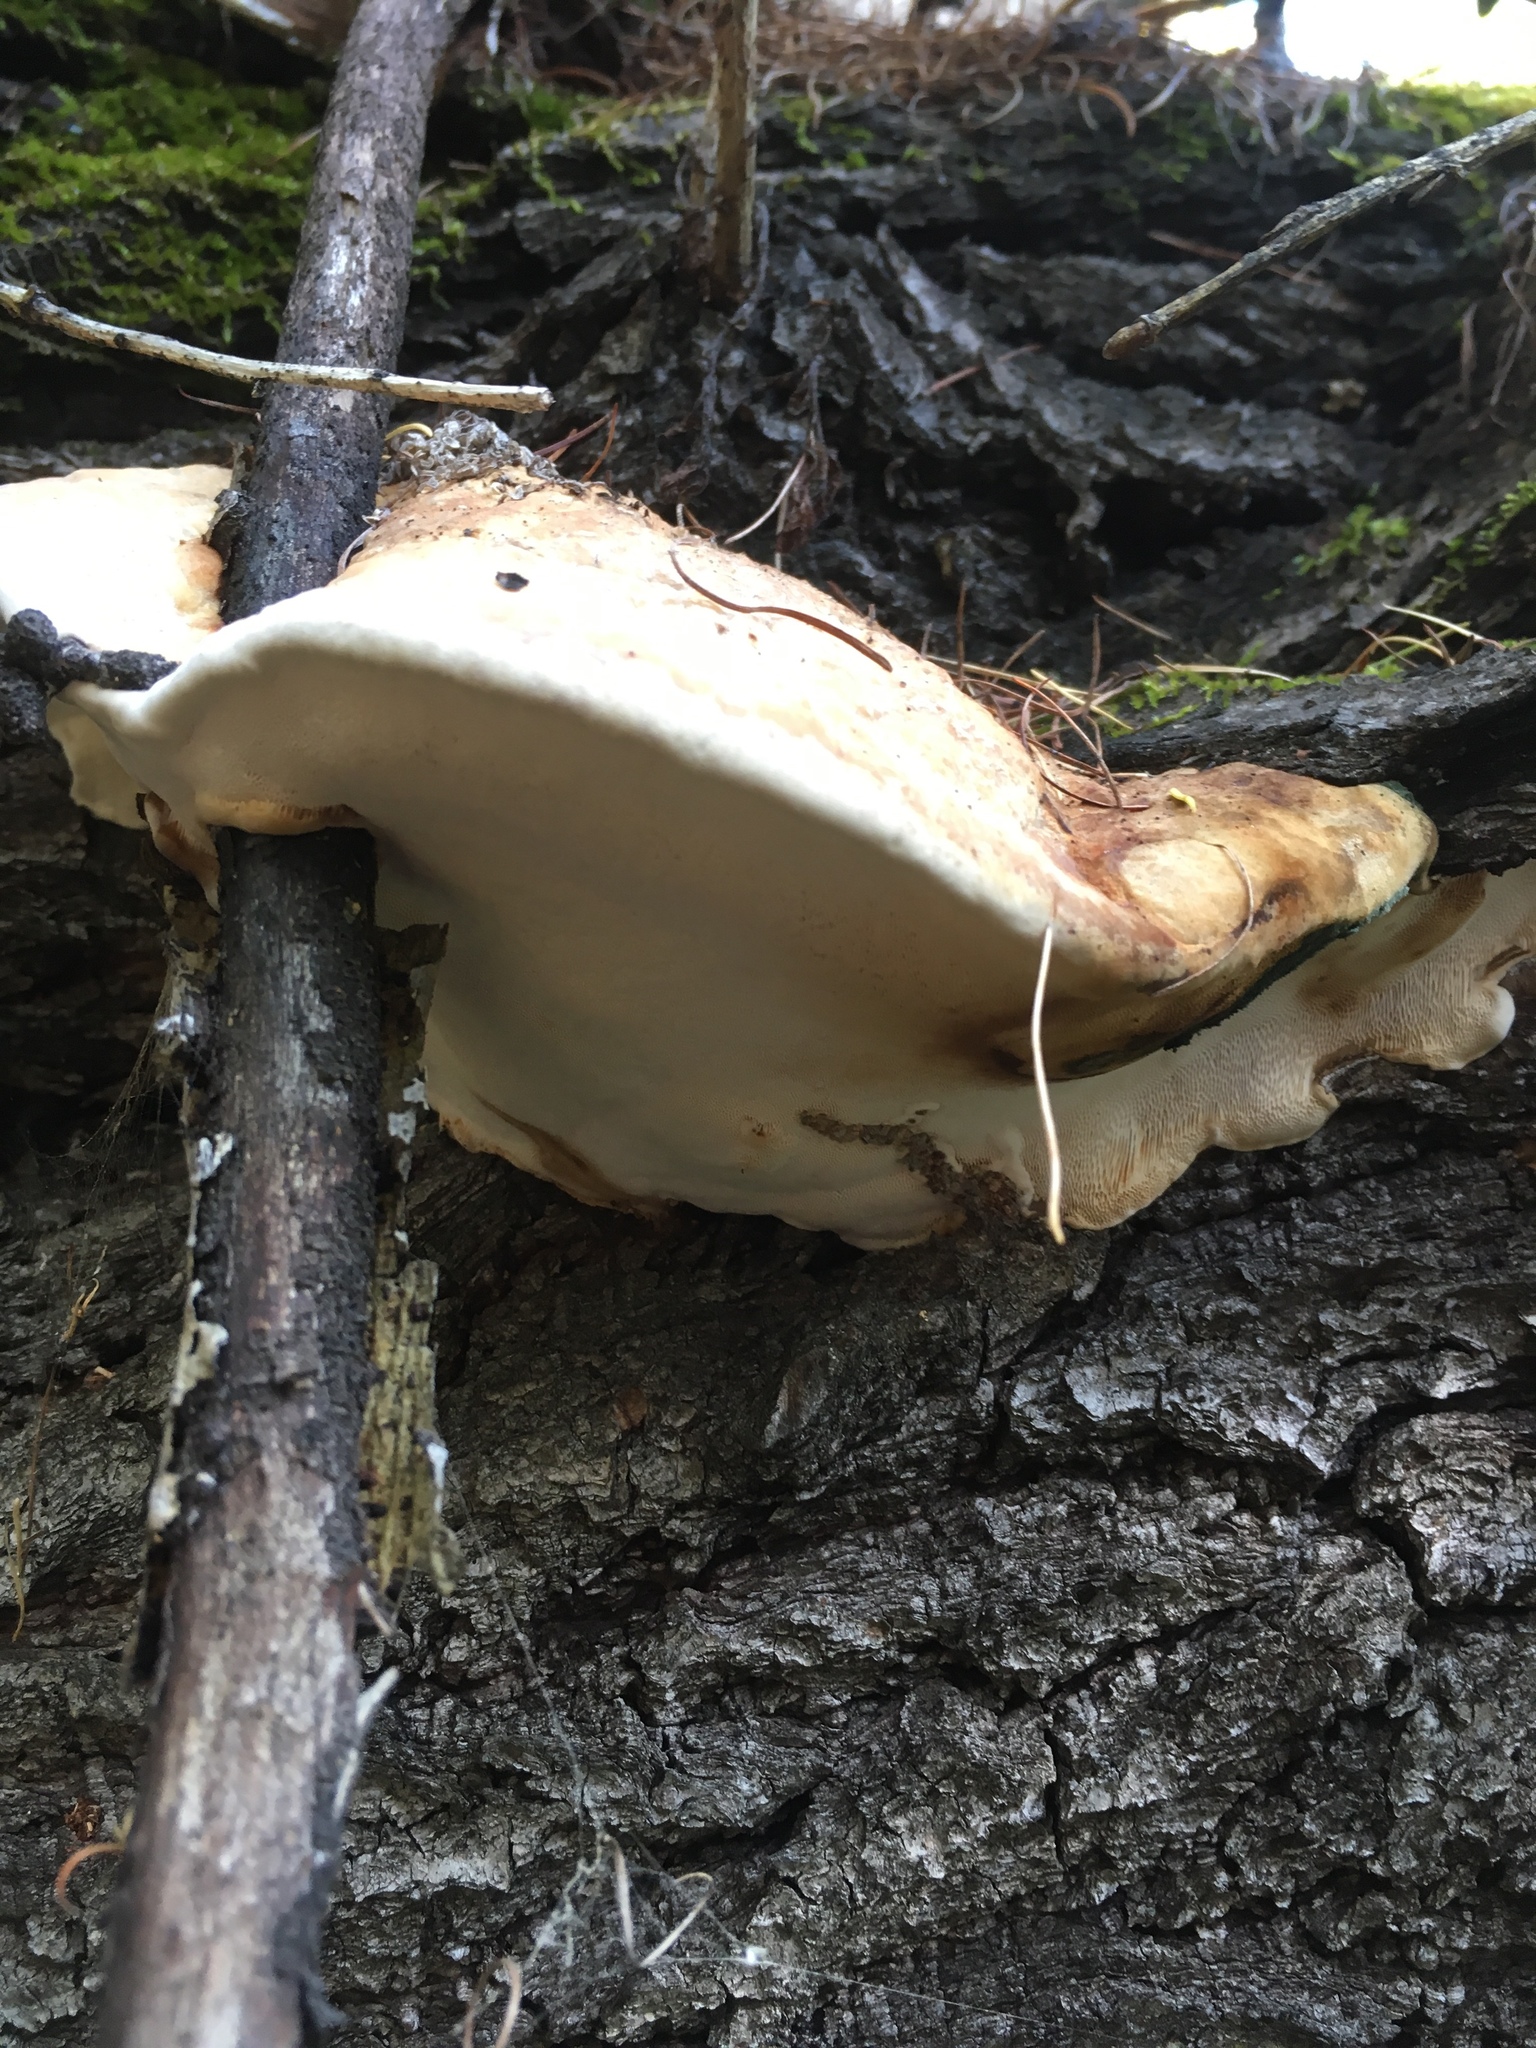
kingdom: Fungi
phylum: Basidiomycota
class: Agaricomycetes
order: Polyporales
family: Polyporaceae
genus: Haploporus
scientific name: Haploporus odorus
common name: Aniseed polypore
